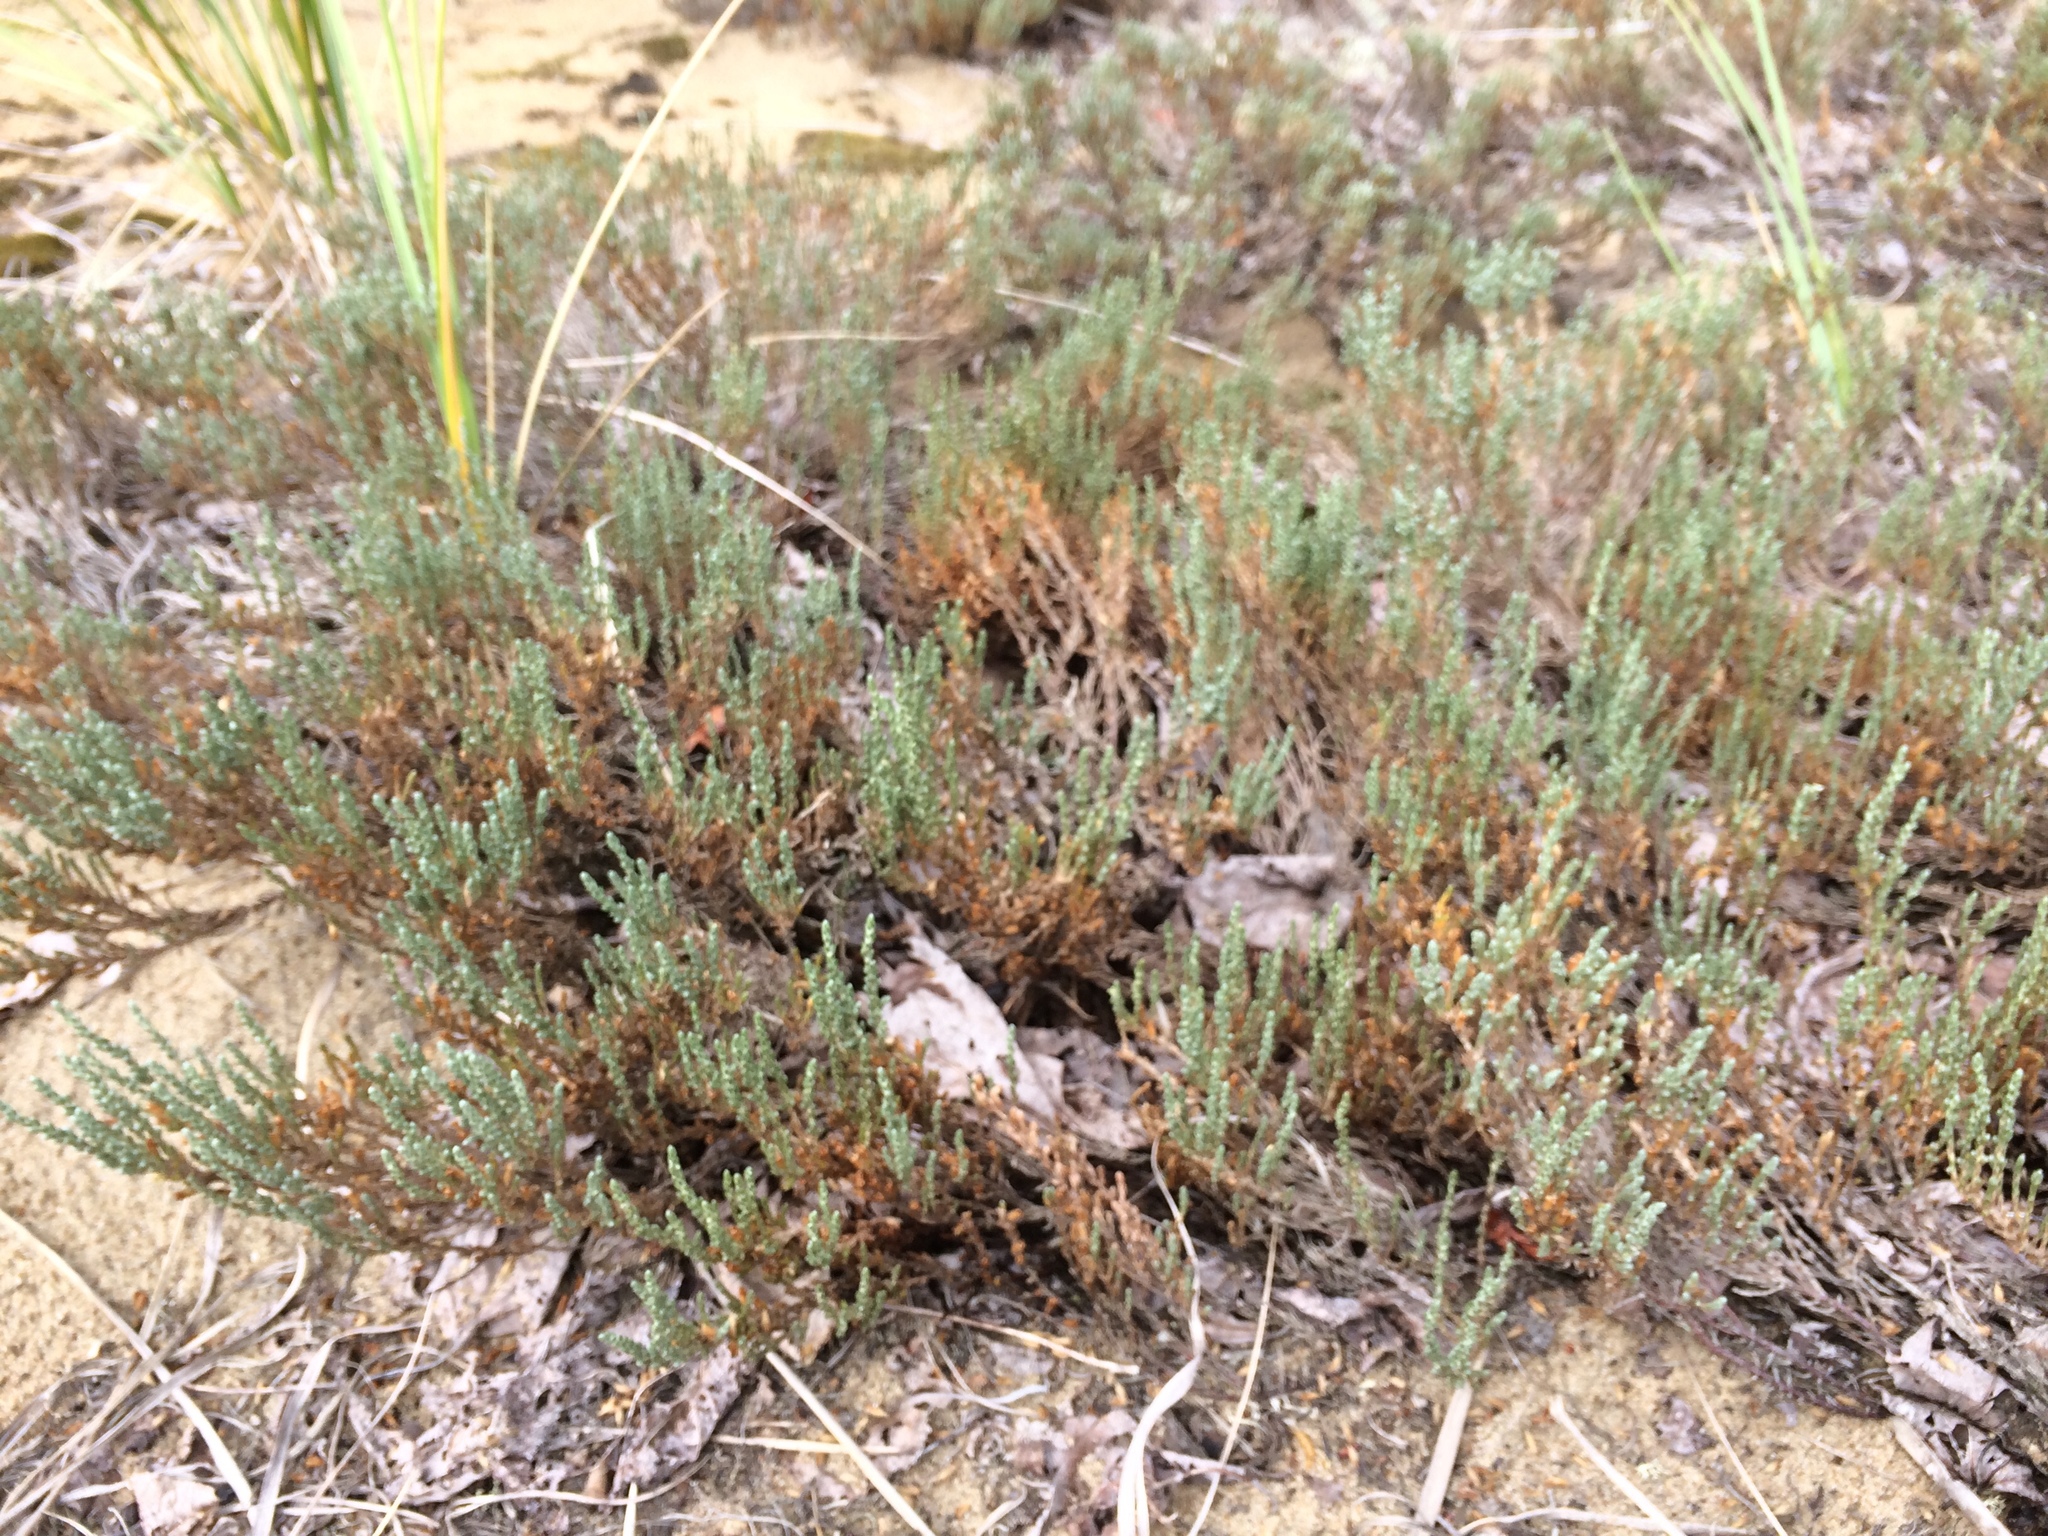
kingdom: Plantae
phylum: Tracheophyta
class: Magnoliopsida
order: Malvales
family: Cistaceae
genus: Hudsonia
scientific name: Hudsonia tomentosa
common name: Beach-heath
